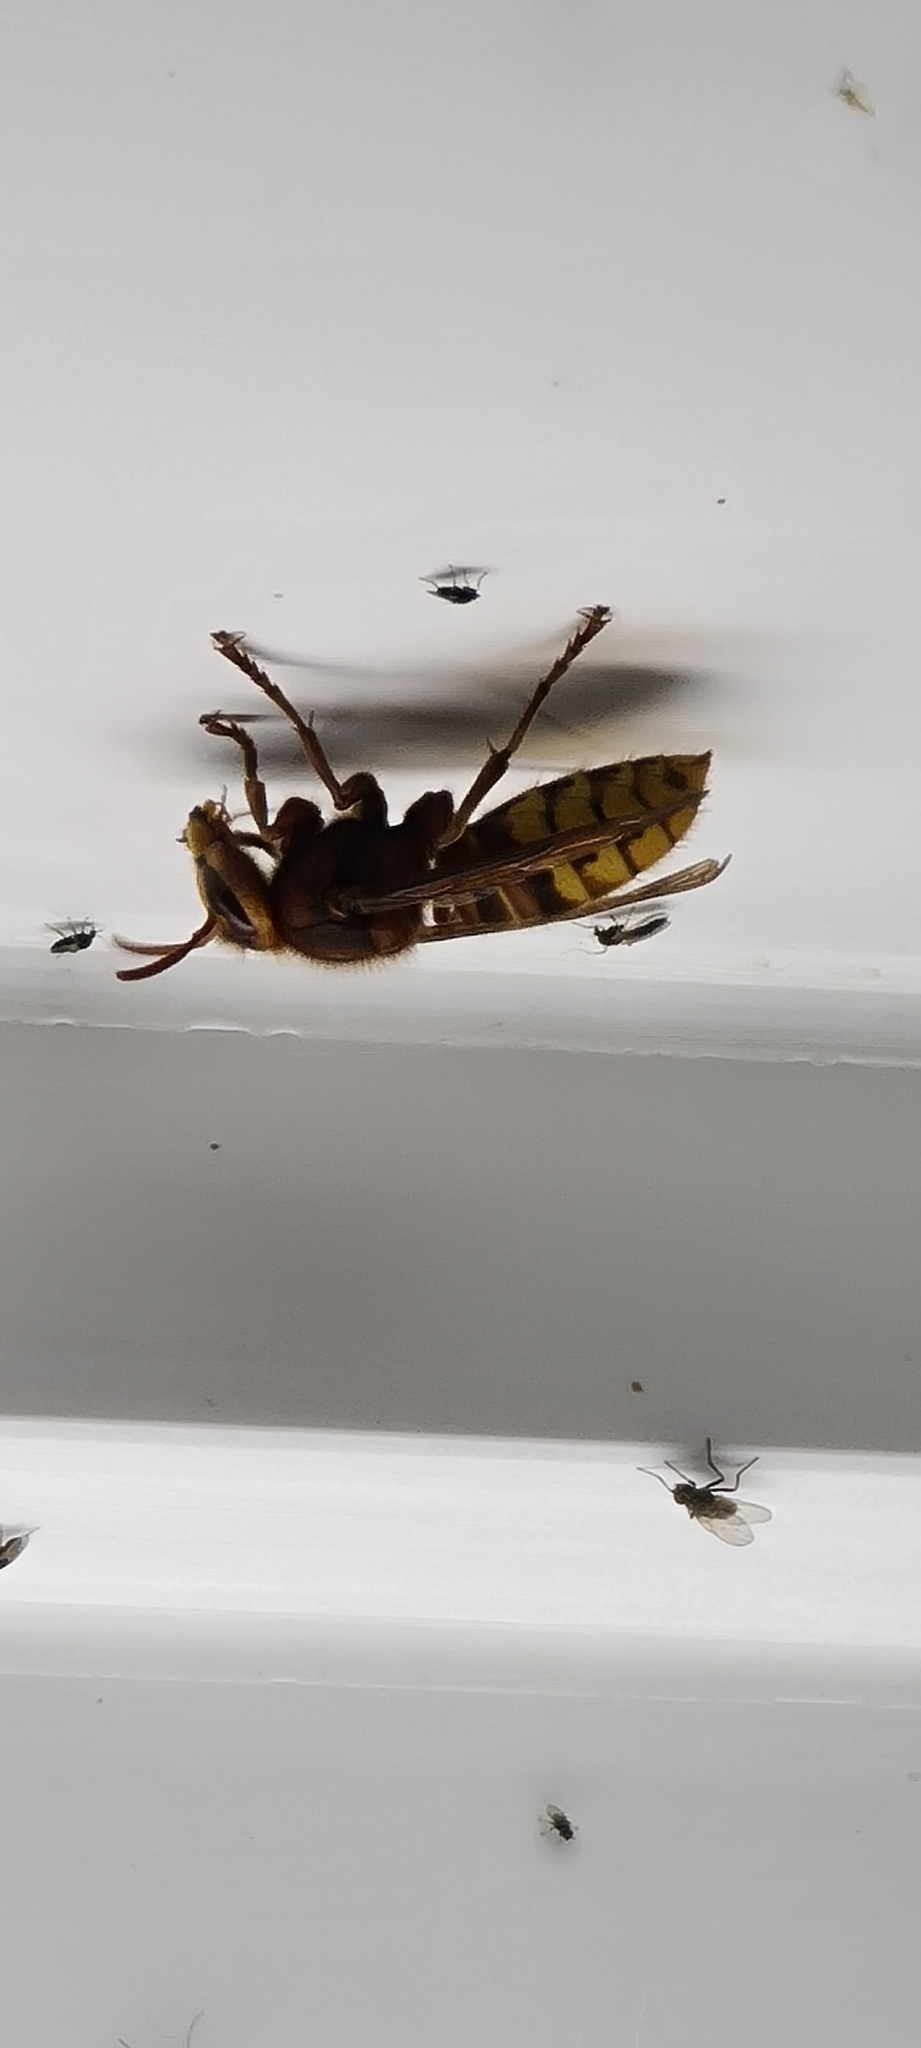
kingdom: Animalia
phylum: Arthropoda
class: Insecta
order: Hymenoptera
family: Vespidae
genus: Vespa
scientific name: Vespa crabro
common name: Hornet
